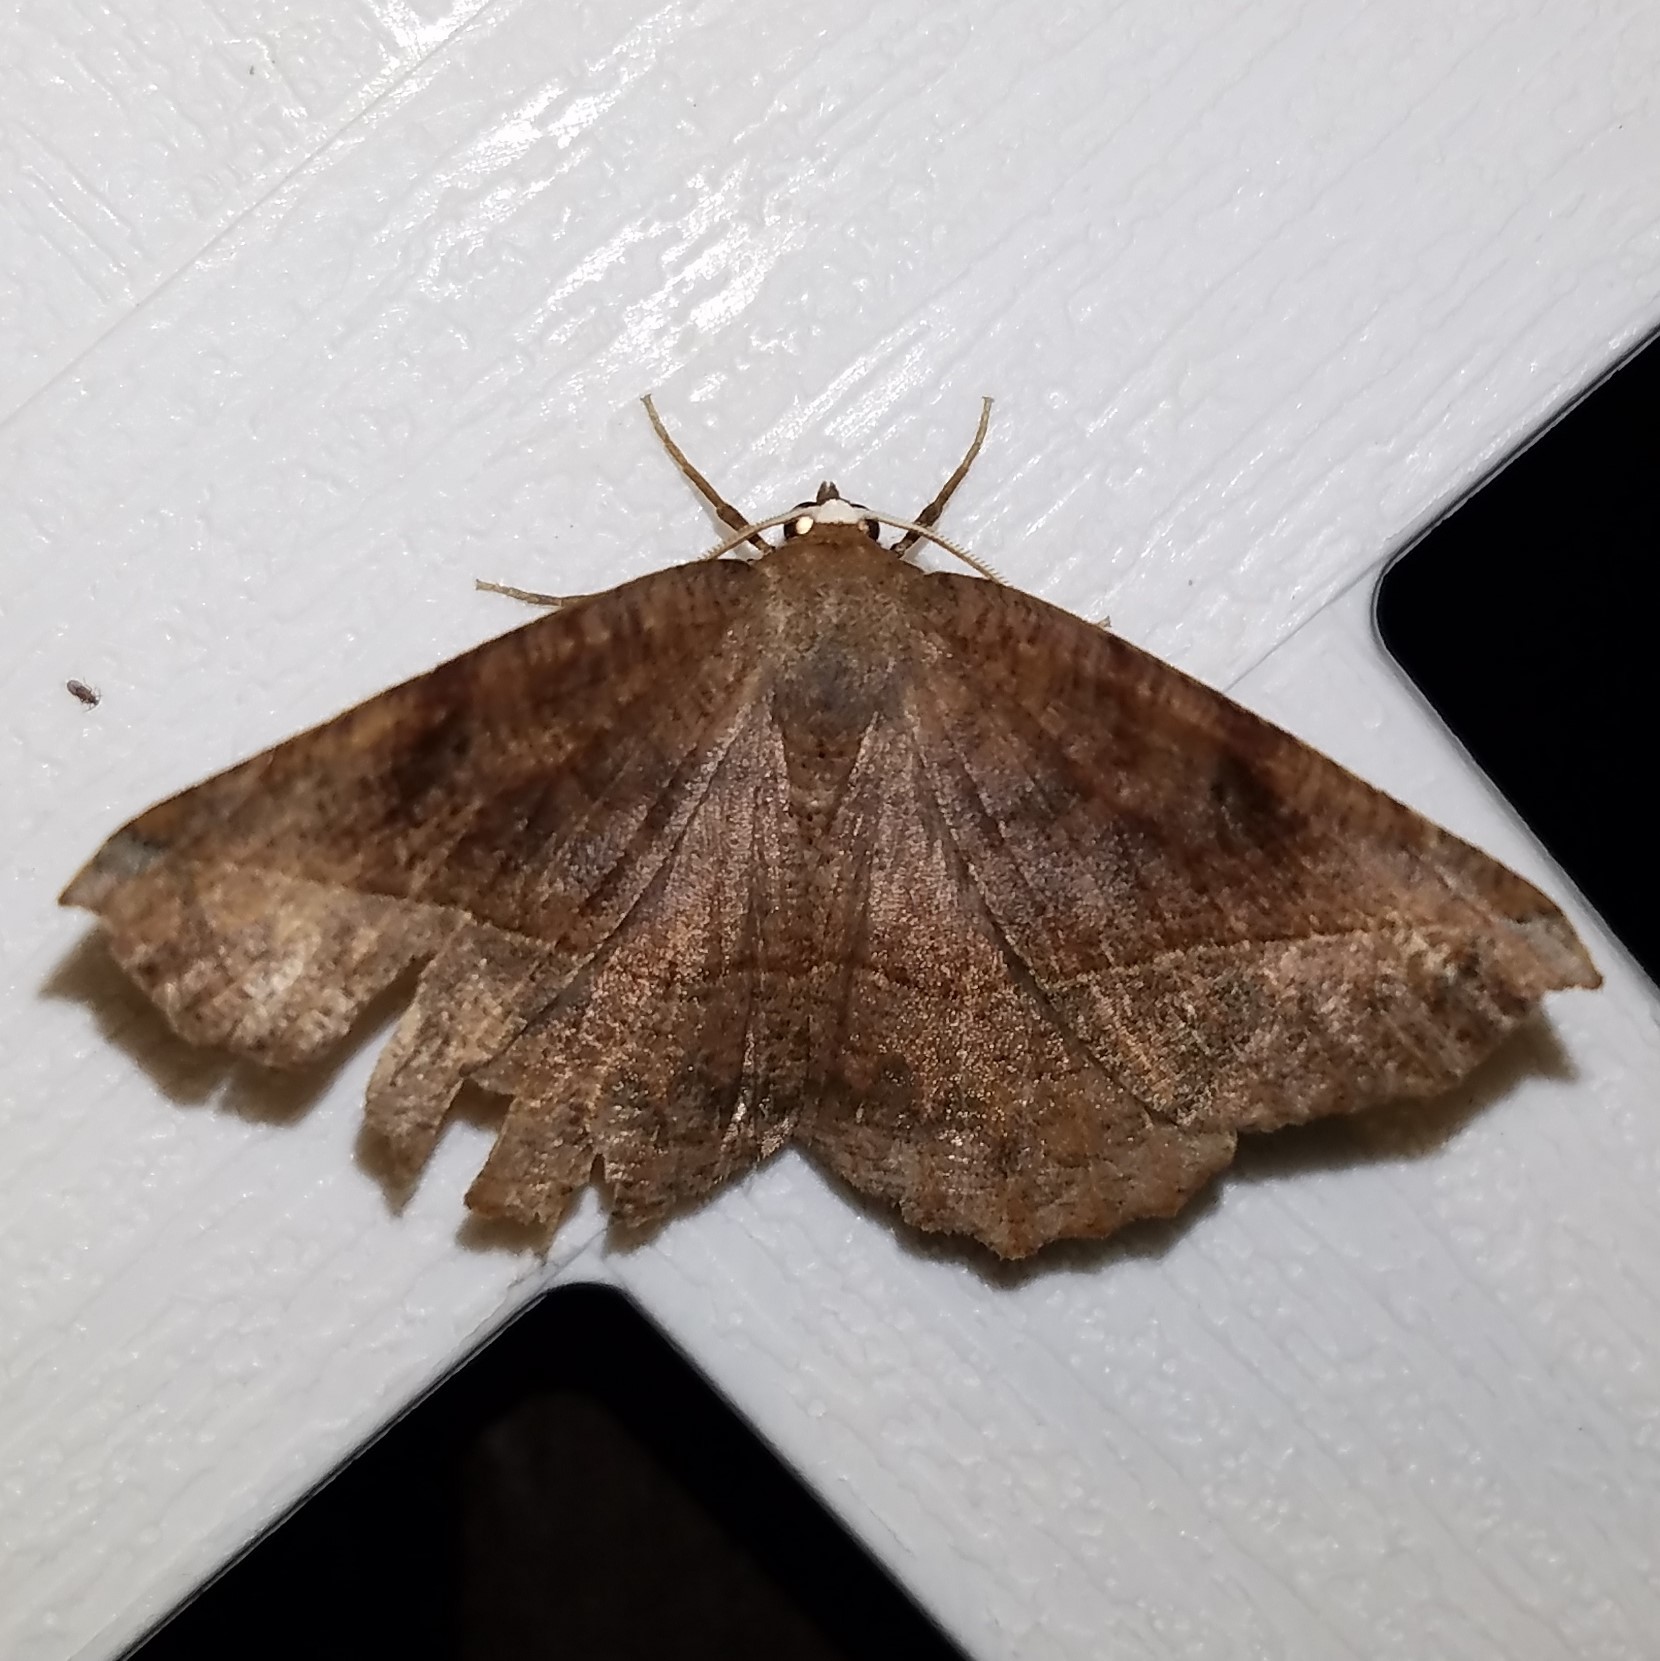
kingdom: Animalia
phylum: Arthropoda
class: Insecta
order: Lepidoptera
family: Geometridae
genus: Eutrapela
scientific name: Eutrapela clemataria
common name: Curved-toothed geometer
